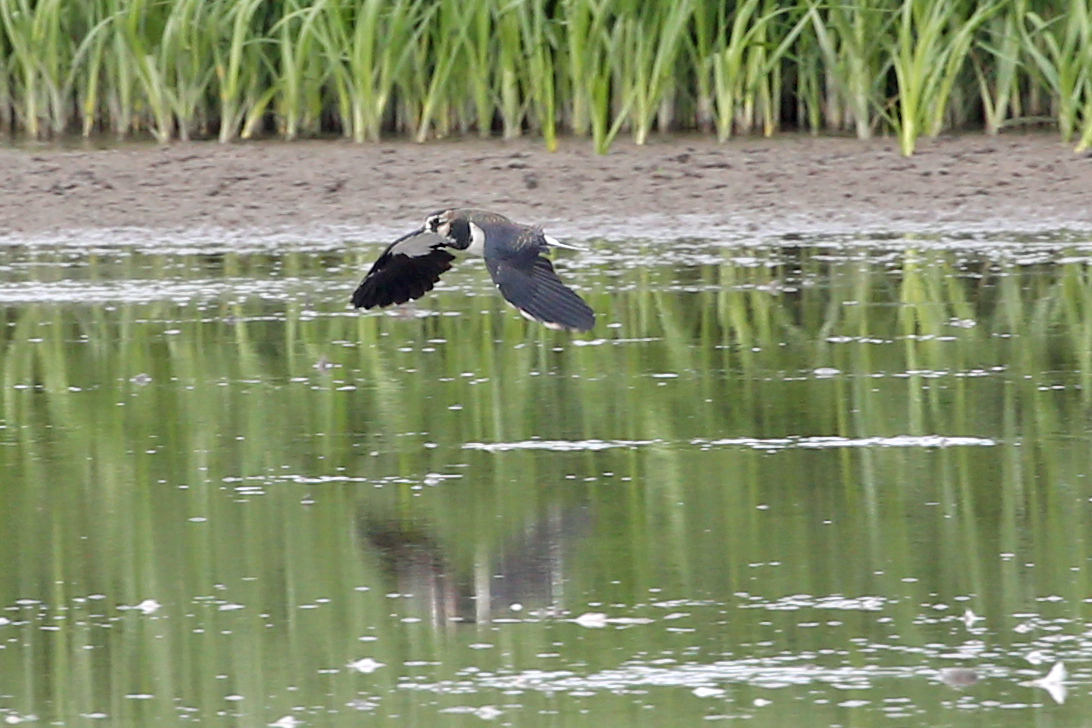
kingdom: Animalia
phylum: Chordata
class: Aves
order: Charadriiformes
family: Charadriidae
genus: Vanellus
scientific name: Vanellus vanellus
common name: Northern lapwing
